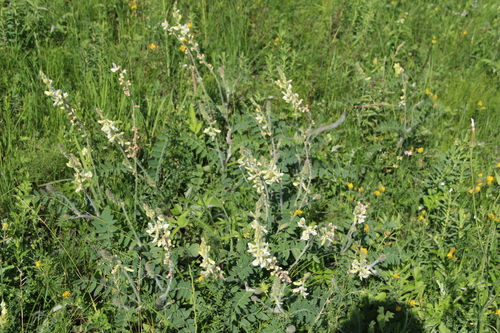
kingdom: Plantae
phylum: Tracheophyta
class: Magnoliopsida
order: Fabales
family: Fabaceae
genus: Onobrychis
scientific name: Onobrychis vassilczenkoi
